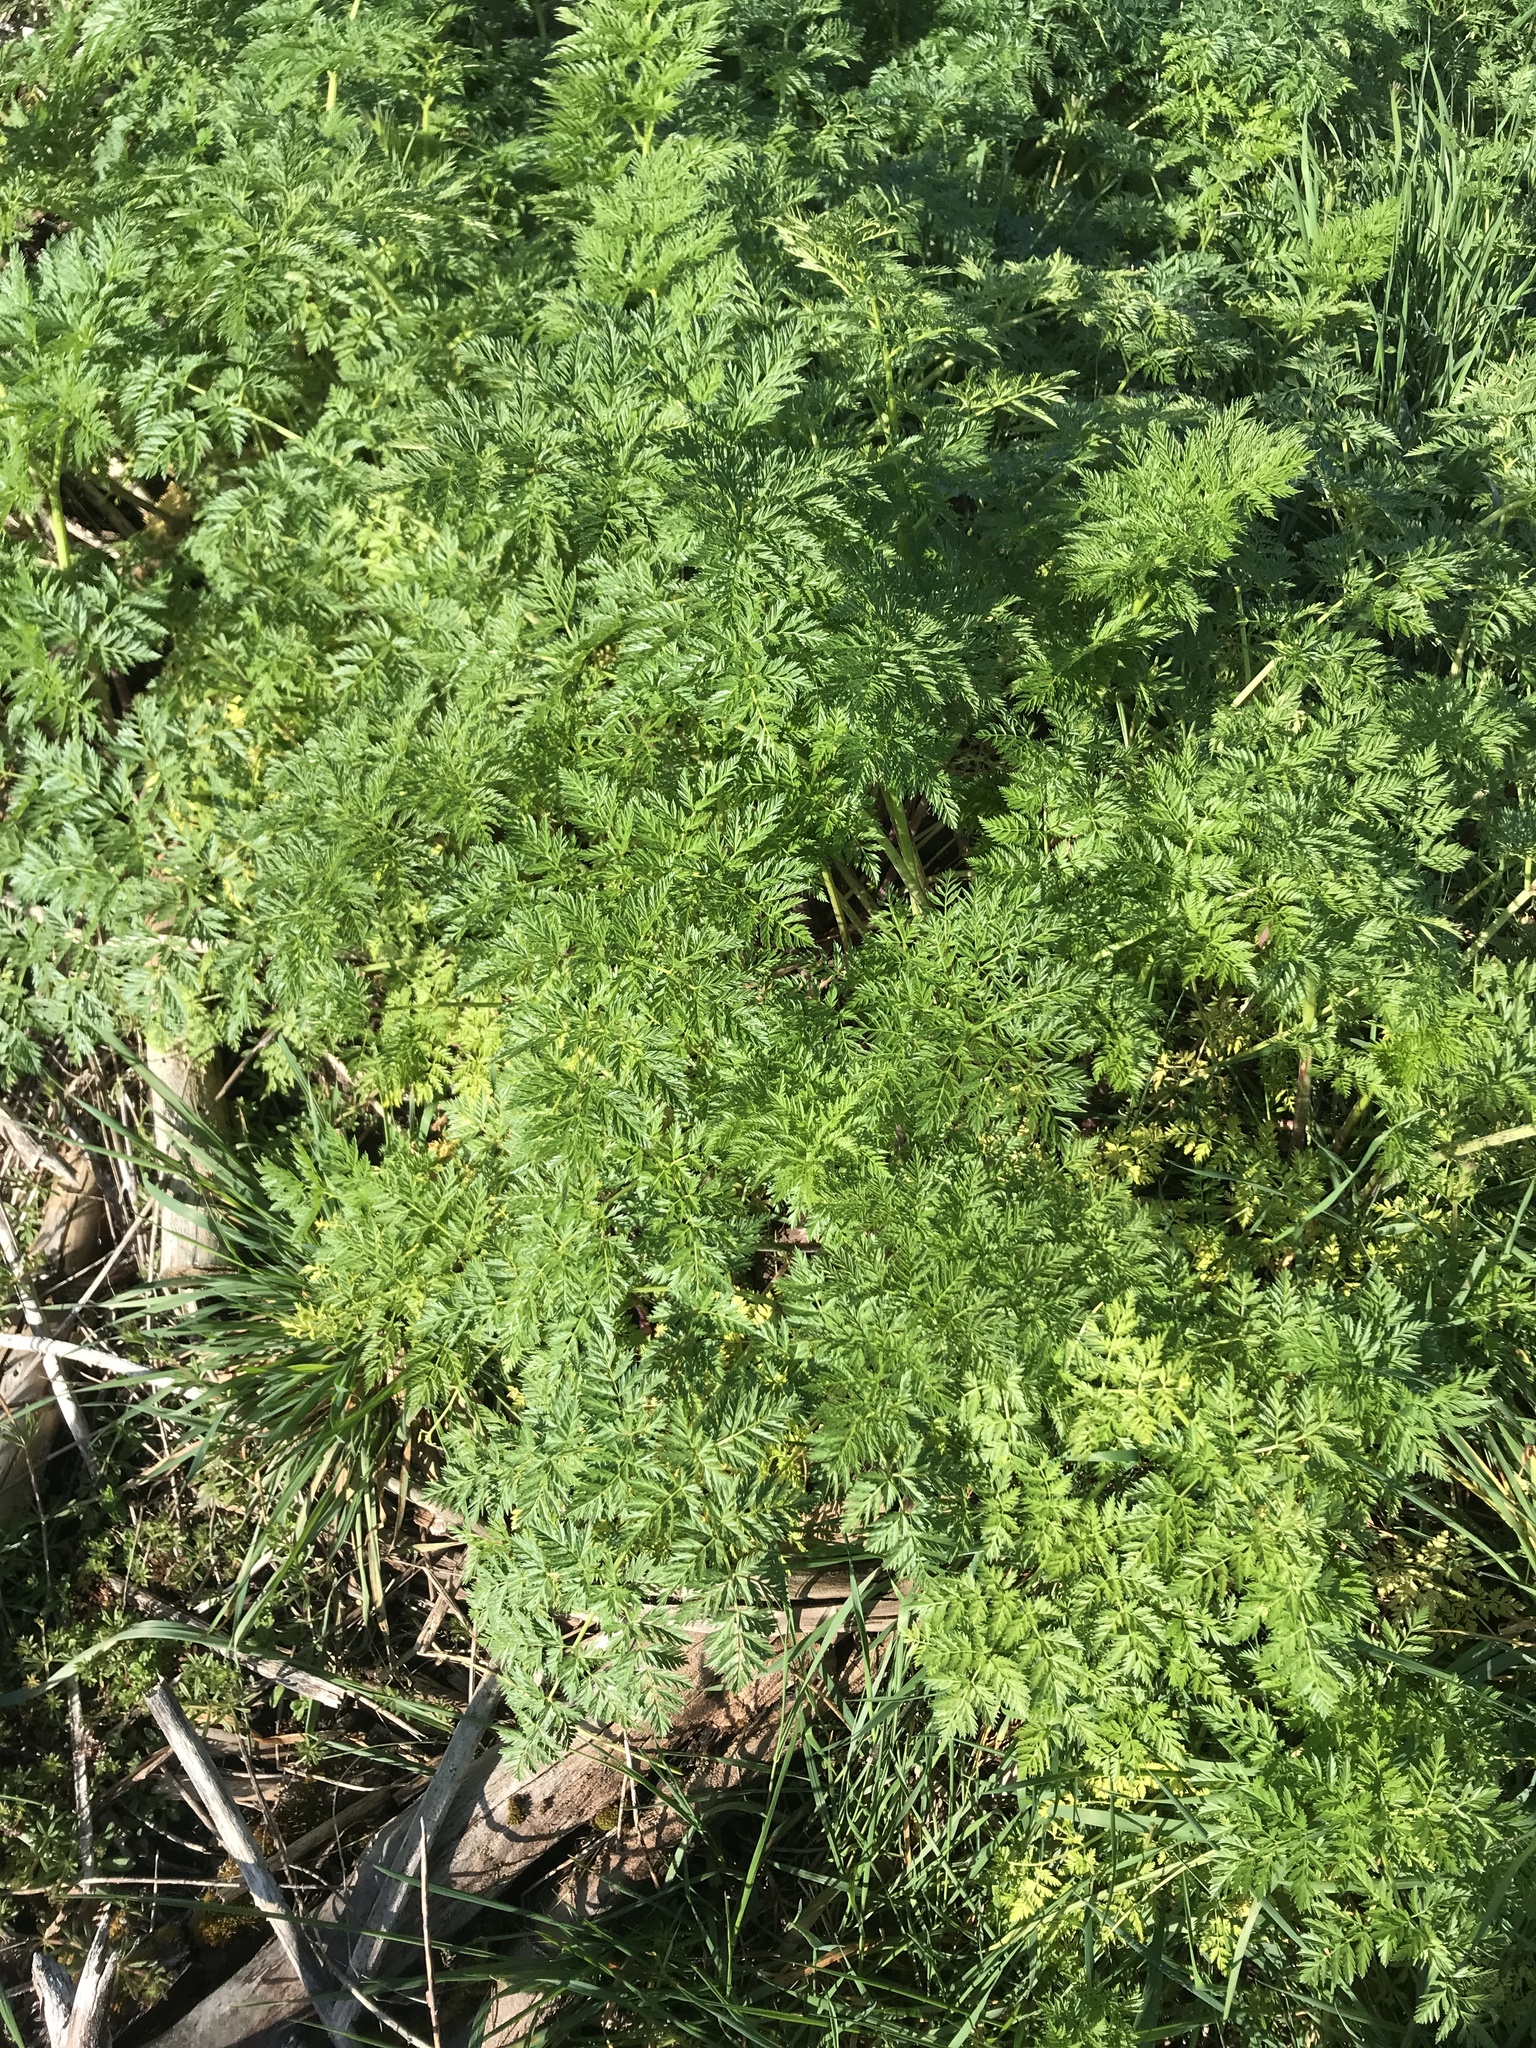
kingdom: Plantae
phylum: Tracheophyta
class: Magnoliopsida
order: Apiales
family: Apiaceae
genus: Conium
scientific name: Conium maculatum
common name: Hemlock
